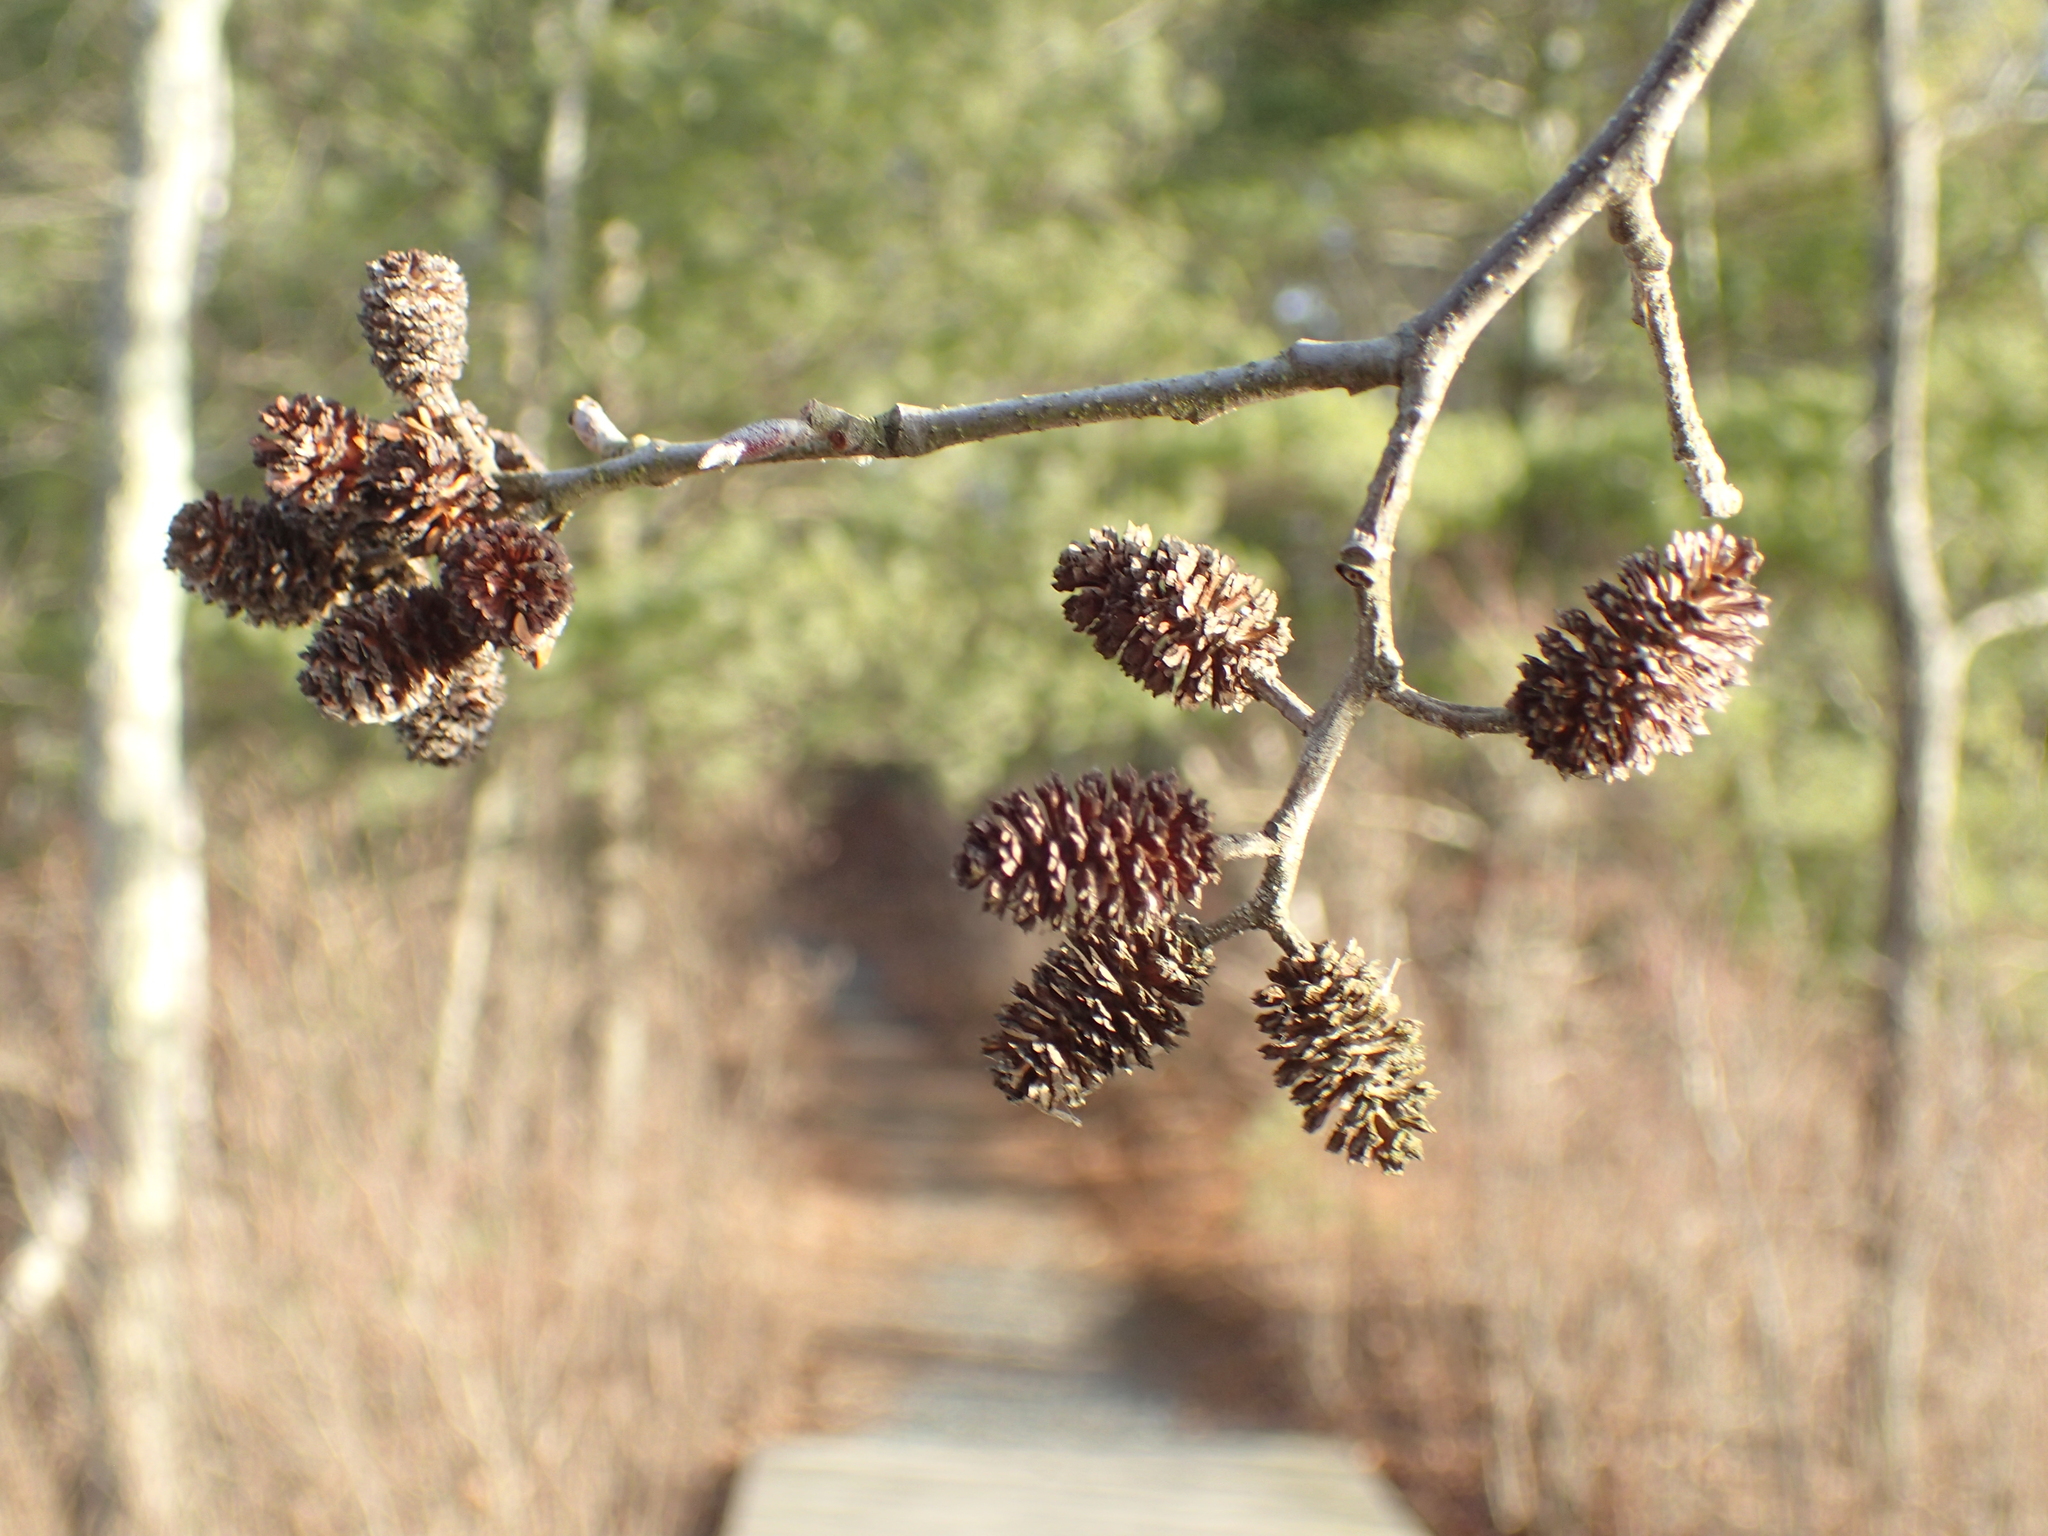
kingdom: Plantae
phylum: Tracheophyta
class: Magnoliopsida
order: Fagales
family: Betulaceae
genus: Alnus
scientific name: Alnus serrulata
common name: Hazel alder
